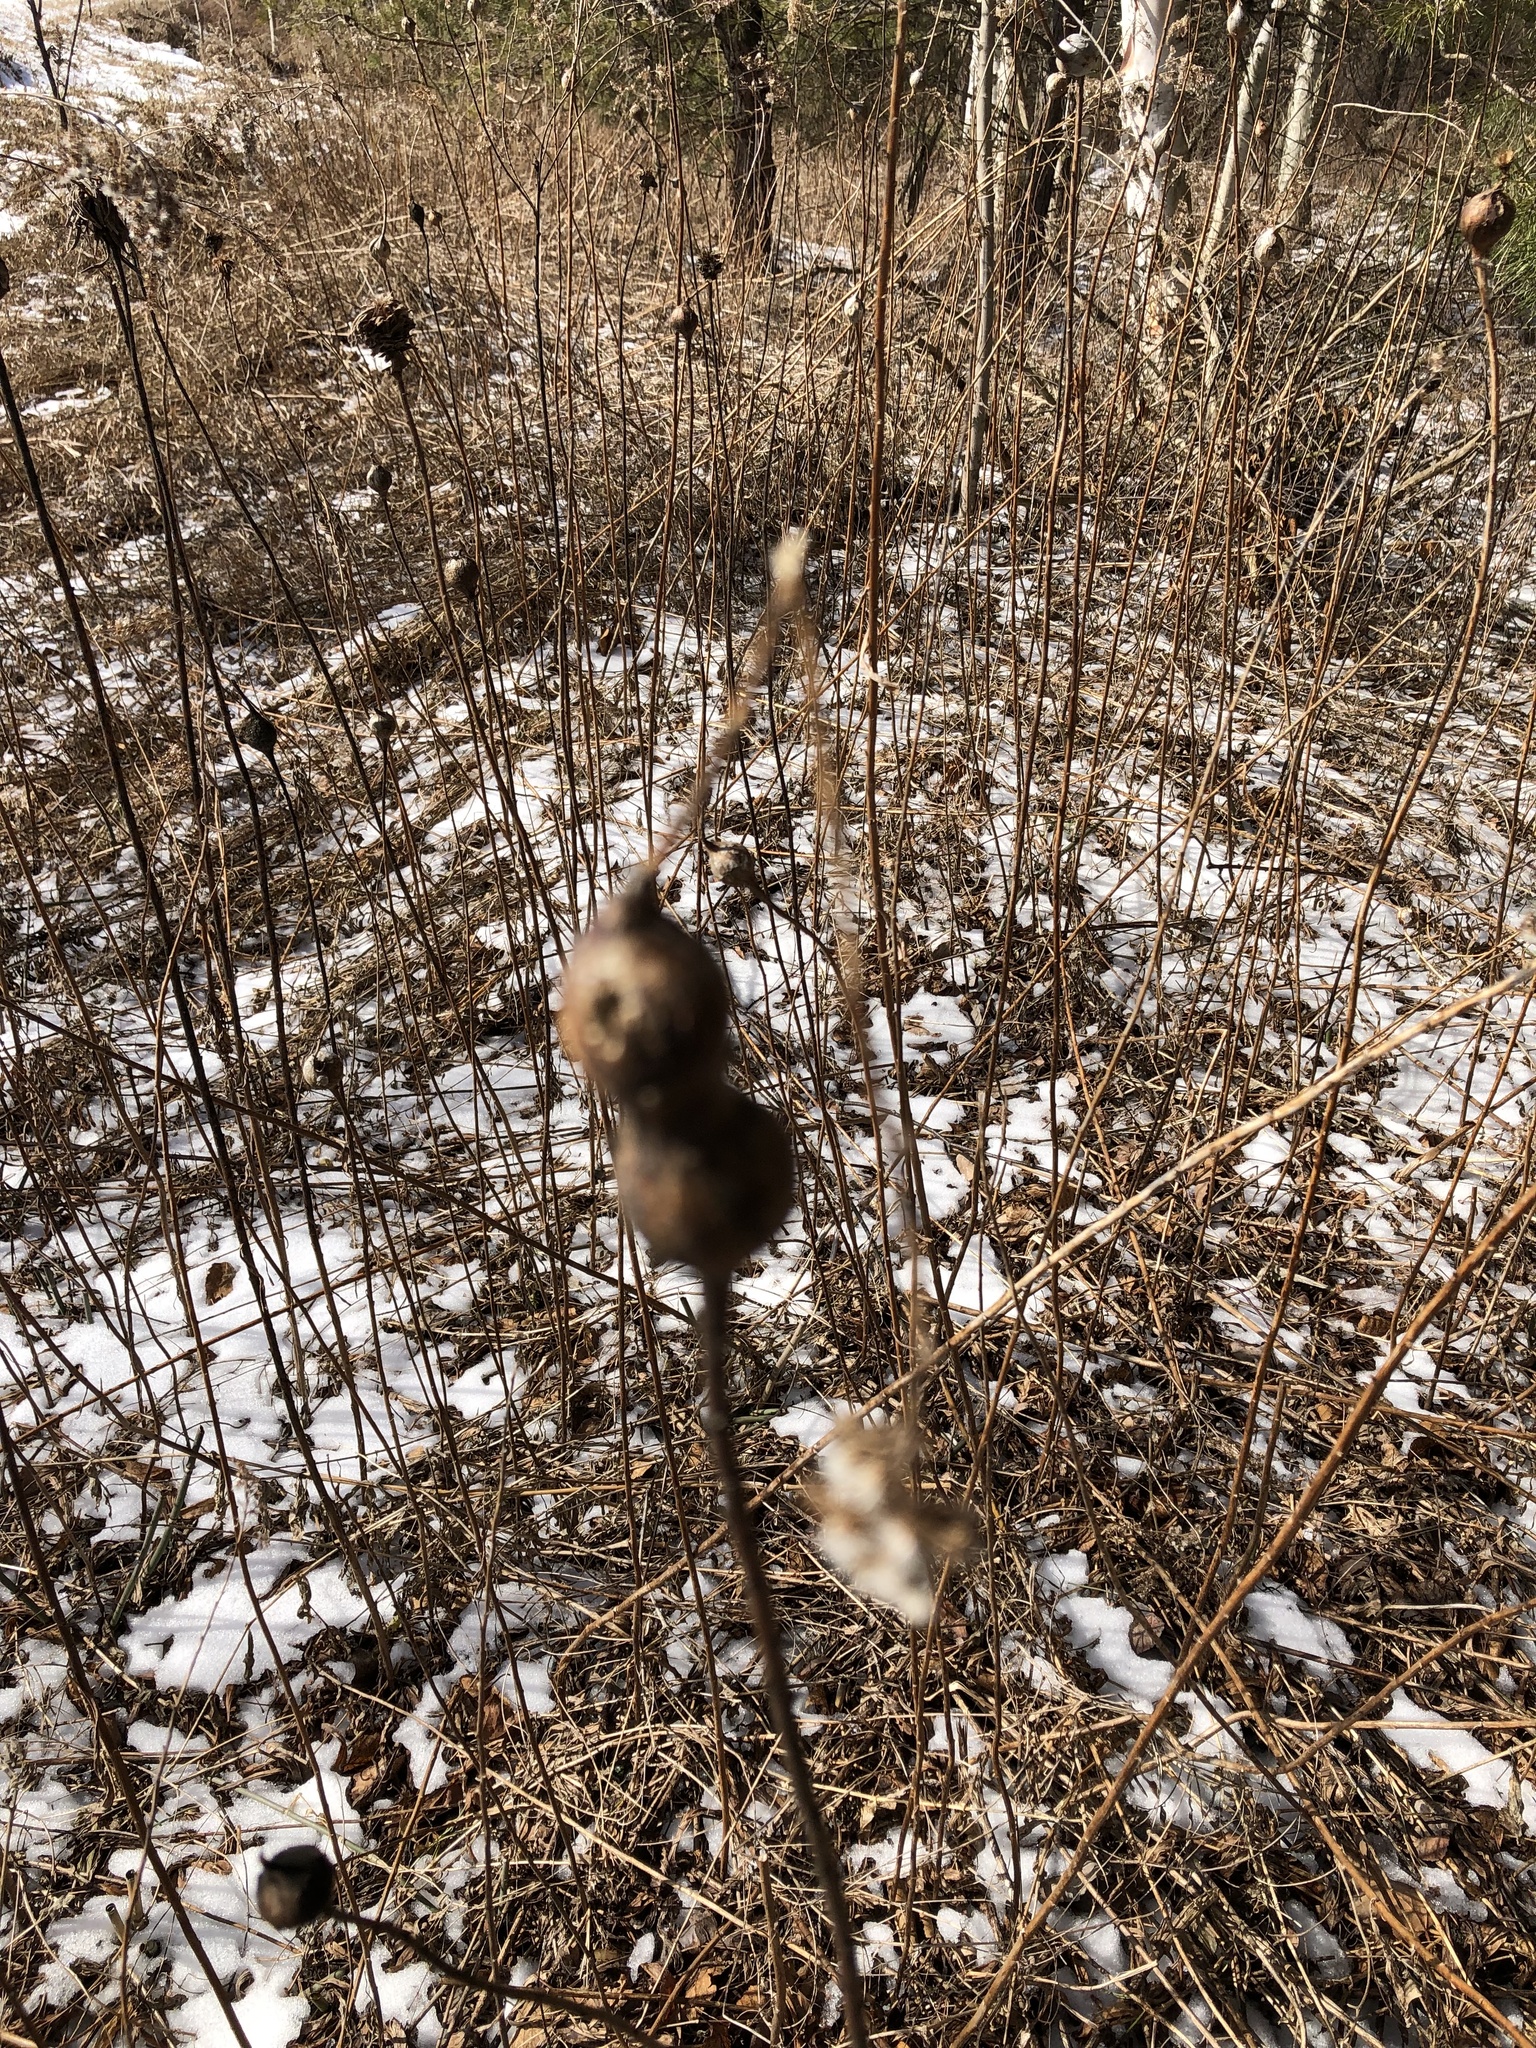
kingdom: Animalia
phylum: Arthropoda
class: Insecta
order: Diptera
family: Tephritidae
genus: Eurosta
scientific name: Eurosta solidaginis
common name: Goldenrod gall fly
